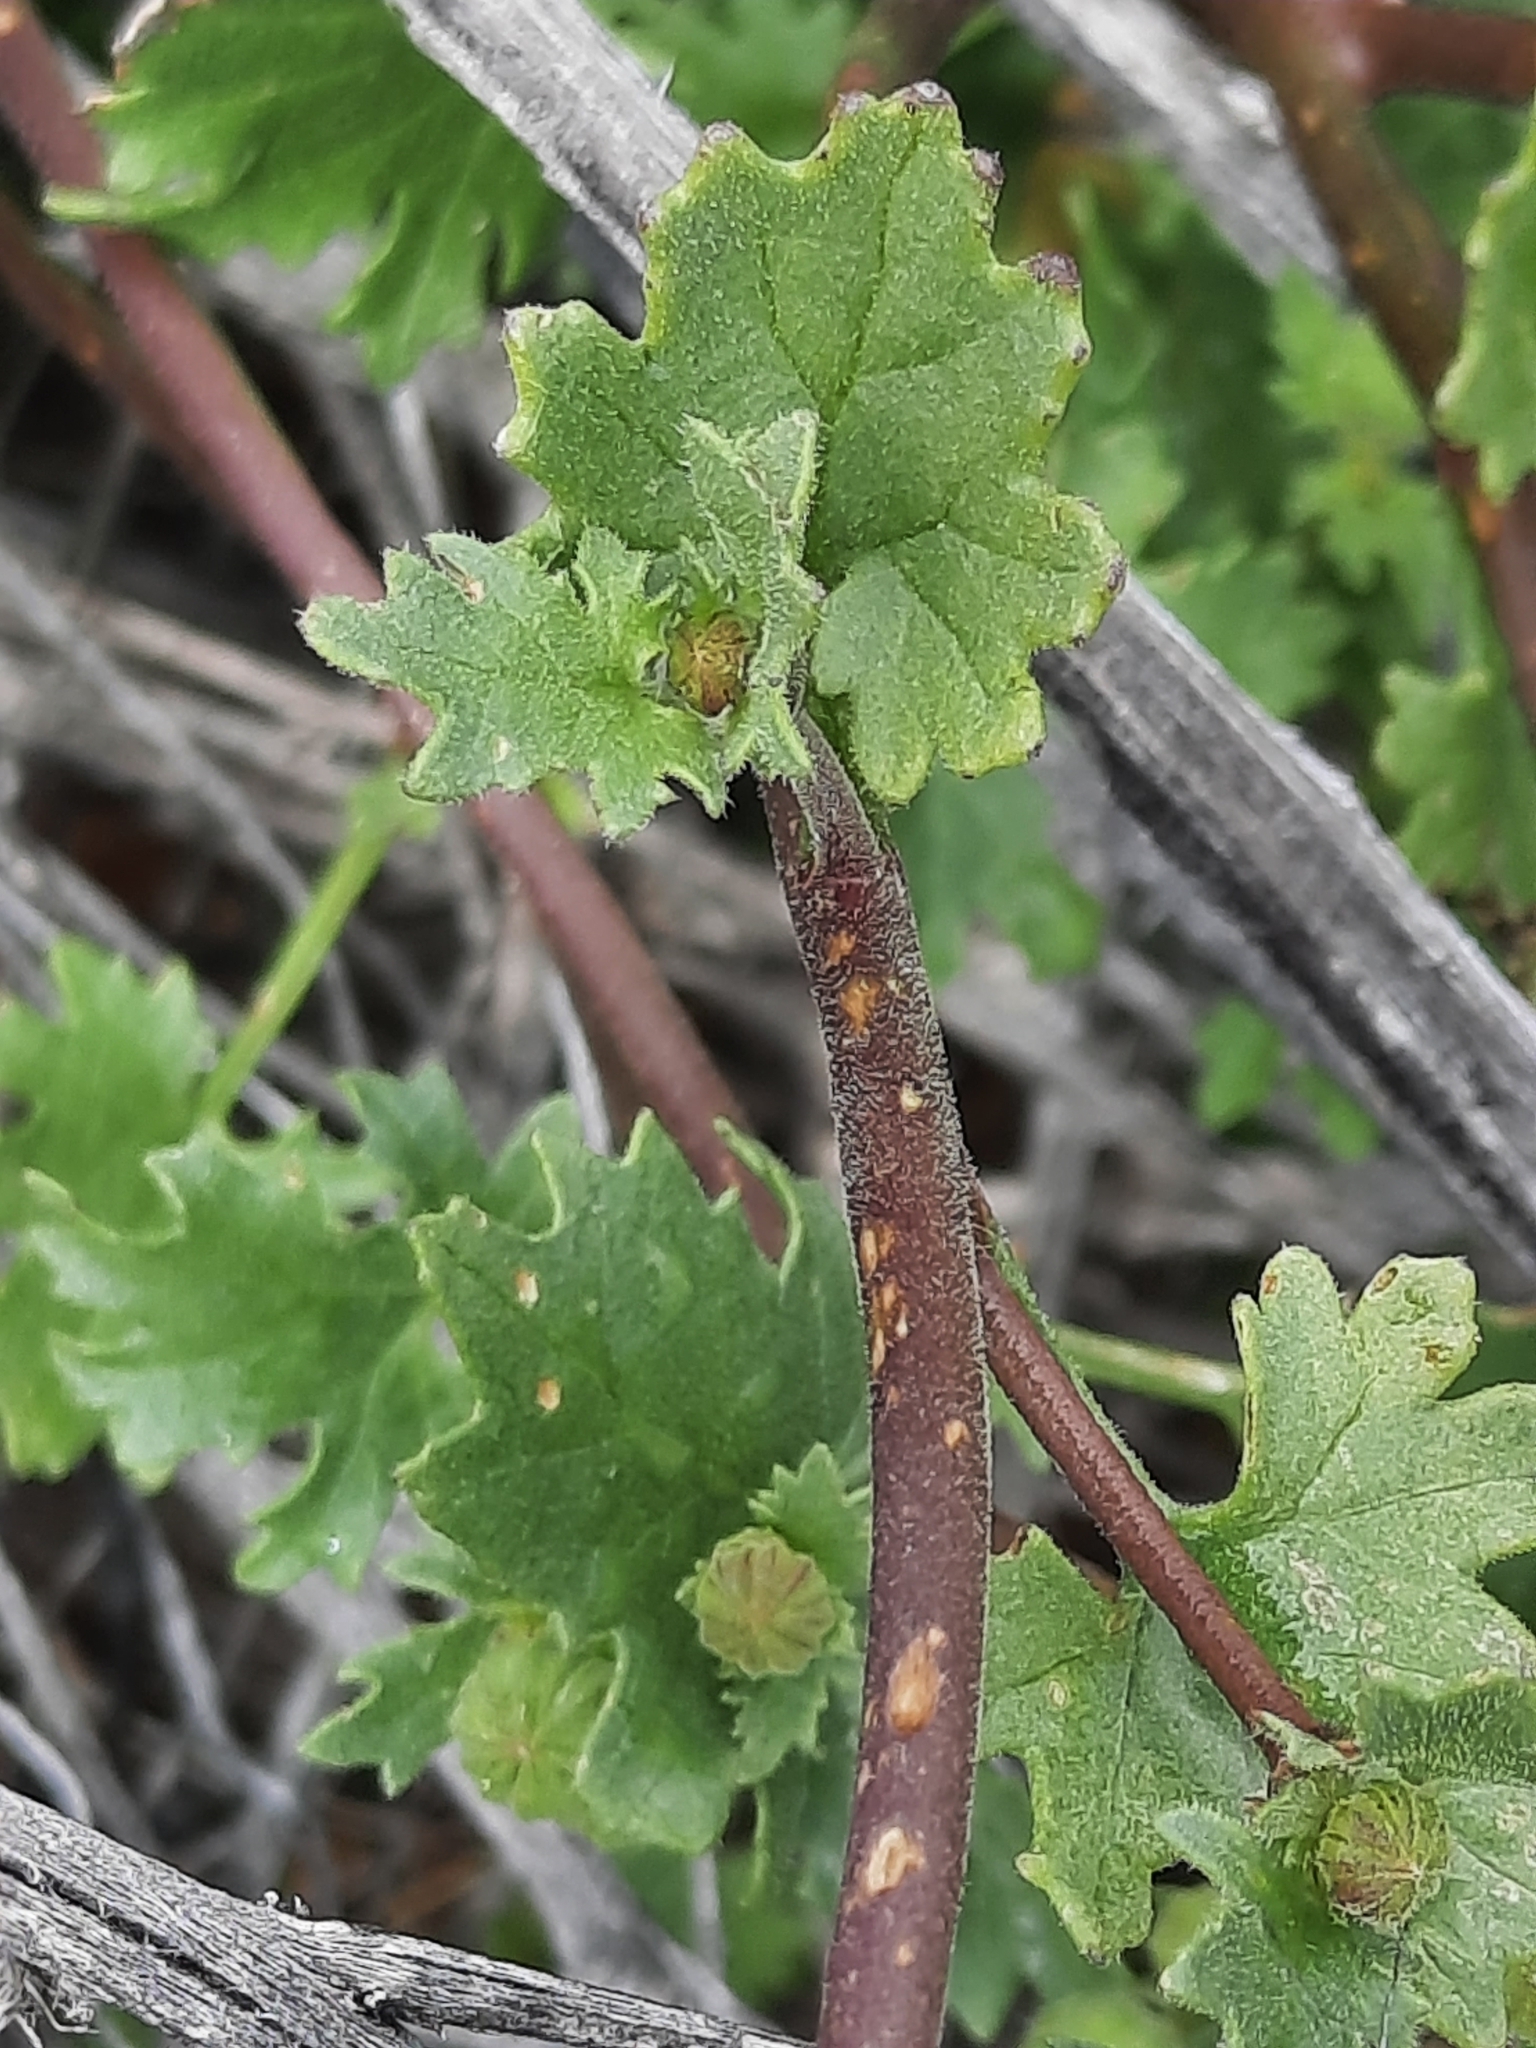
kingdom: Plantae
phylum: Tracheophyta
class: Magnoliopsida
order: Asterales
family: Asteraceae
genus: Laphamia
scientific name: Laphamia emoryi
